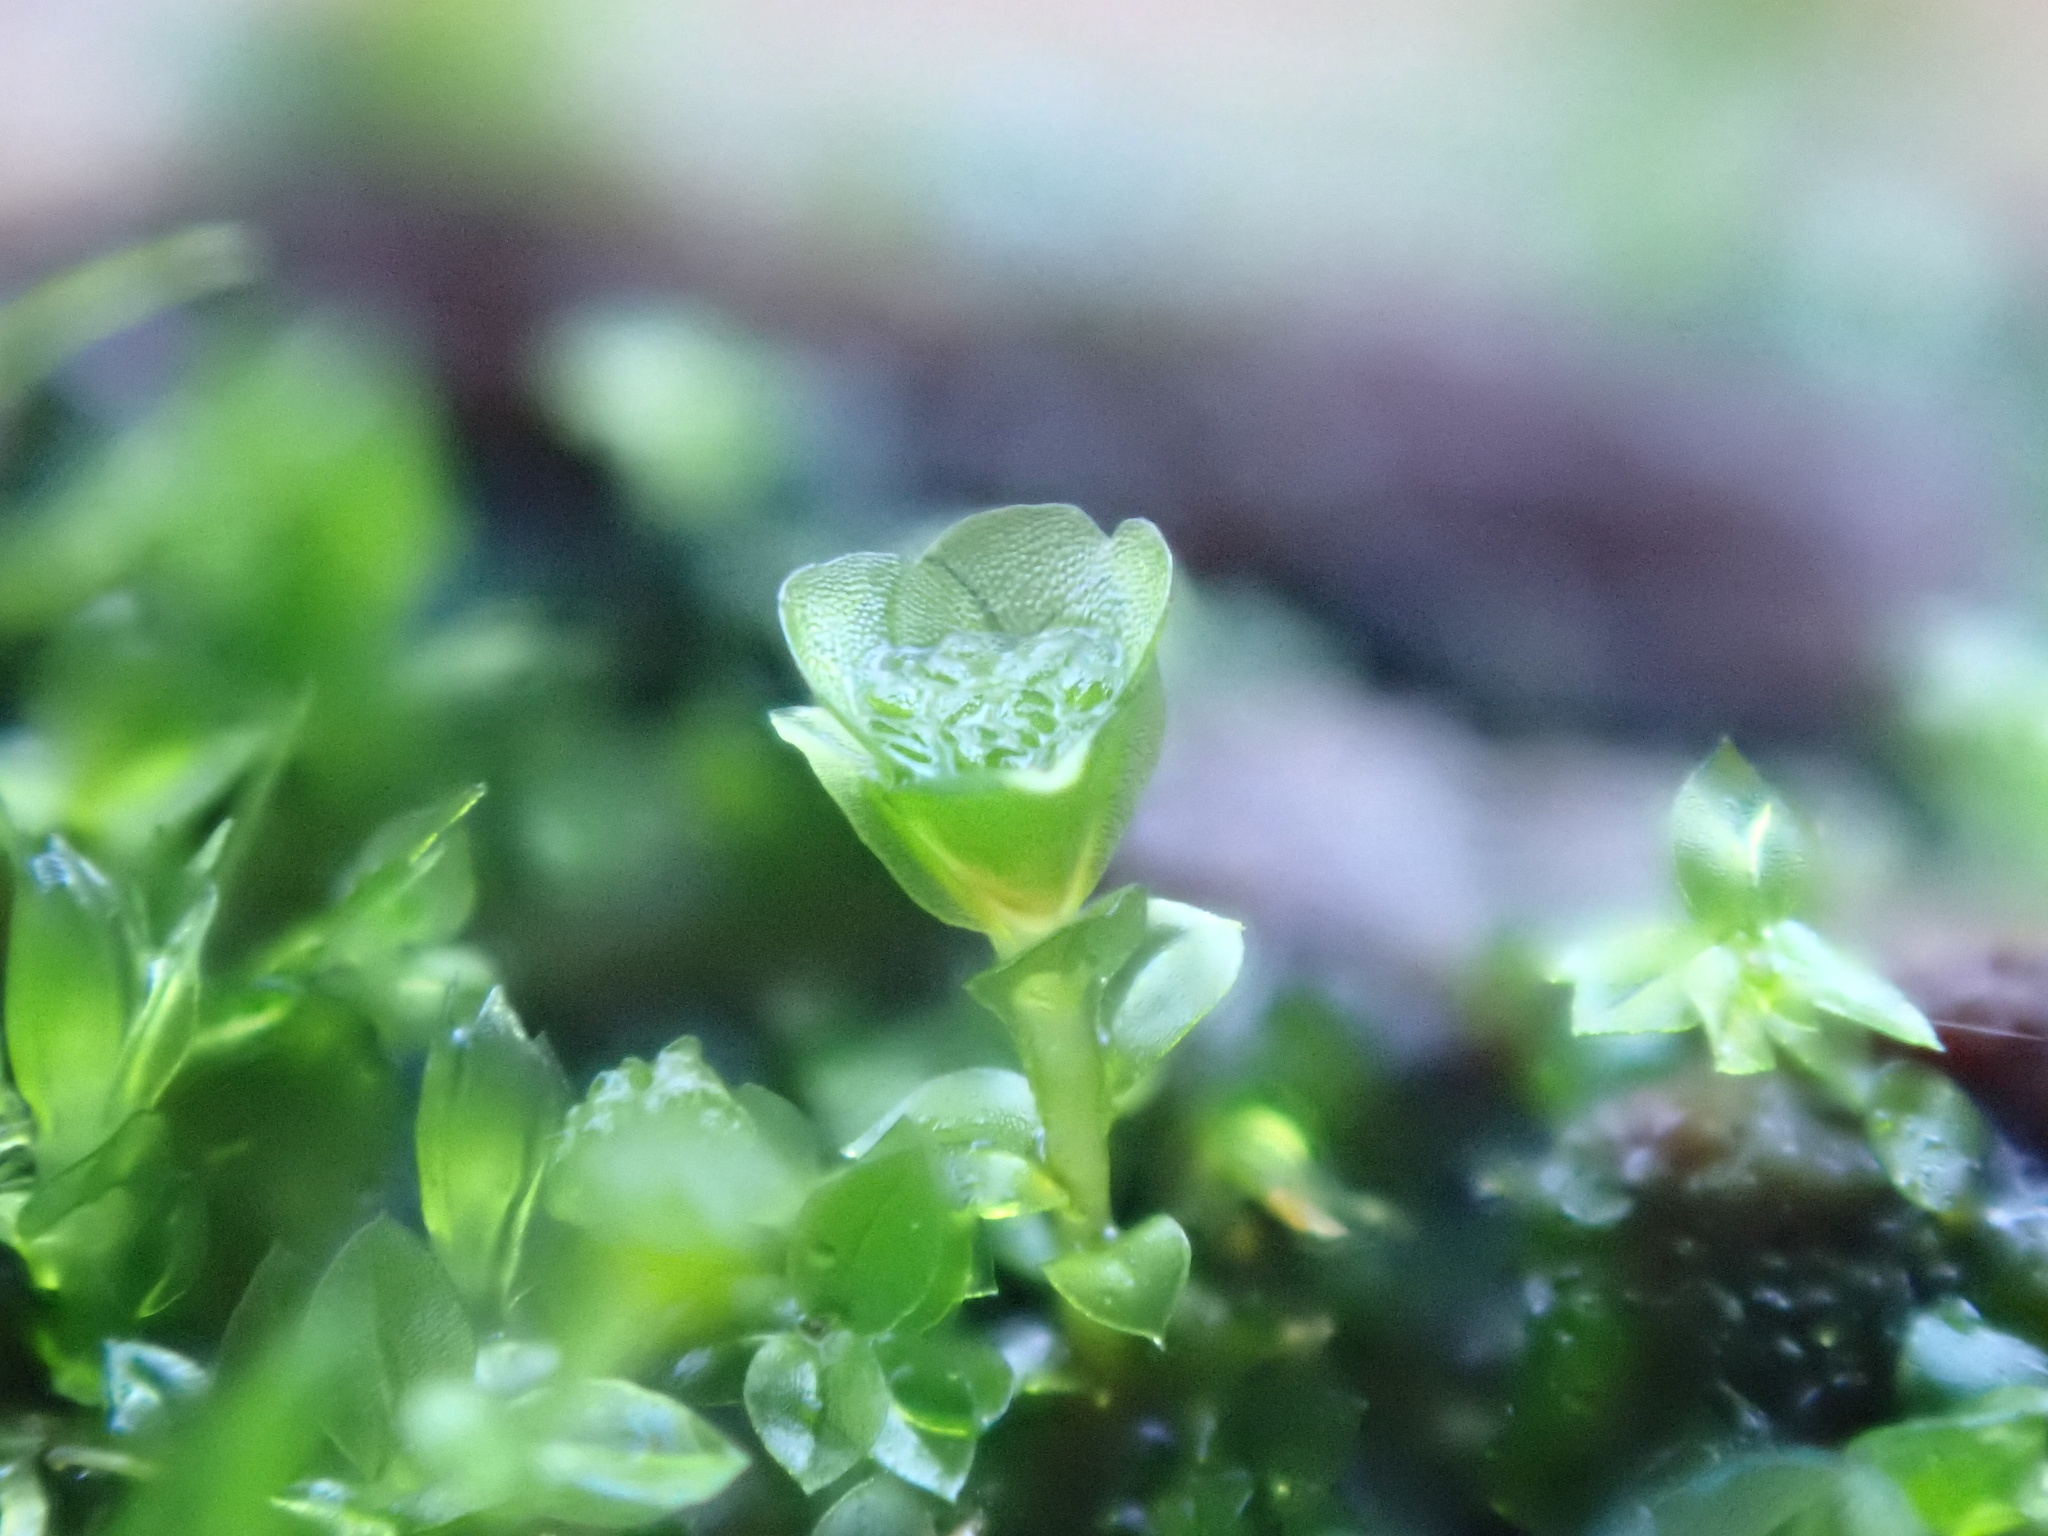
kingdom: Plantae
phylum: Bryophyta
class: Polytrichopsida
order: Tetraphidales
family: Tetraphidaceae
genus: Tetraphis
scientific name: Tetraphis pellucida
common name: Common four-toothed moss
